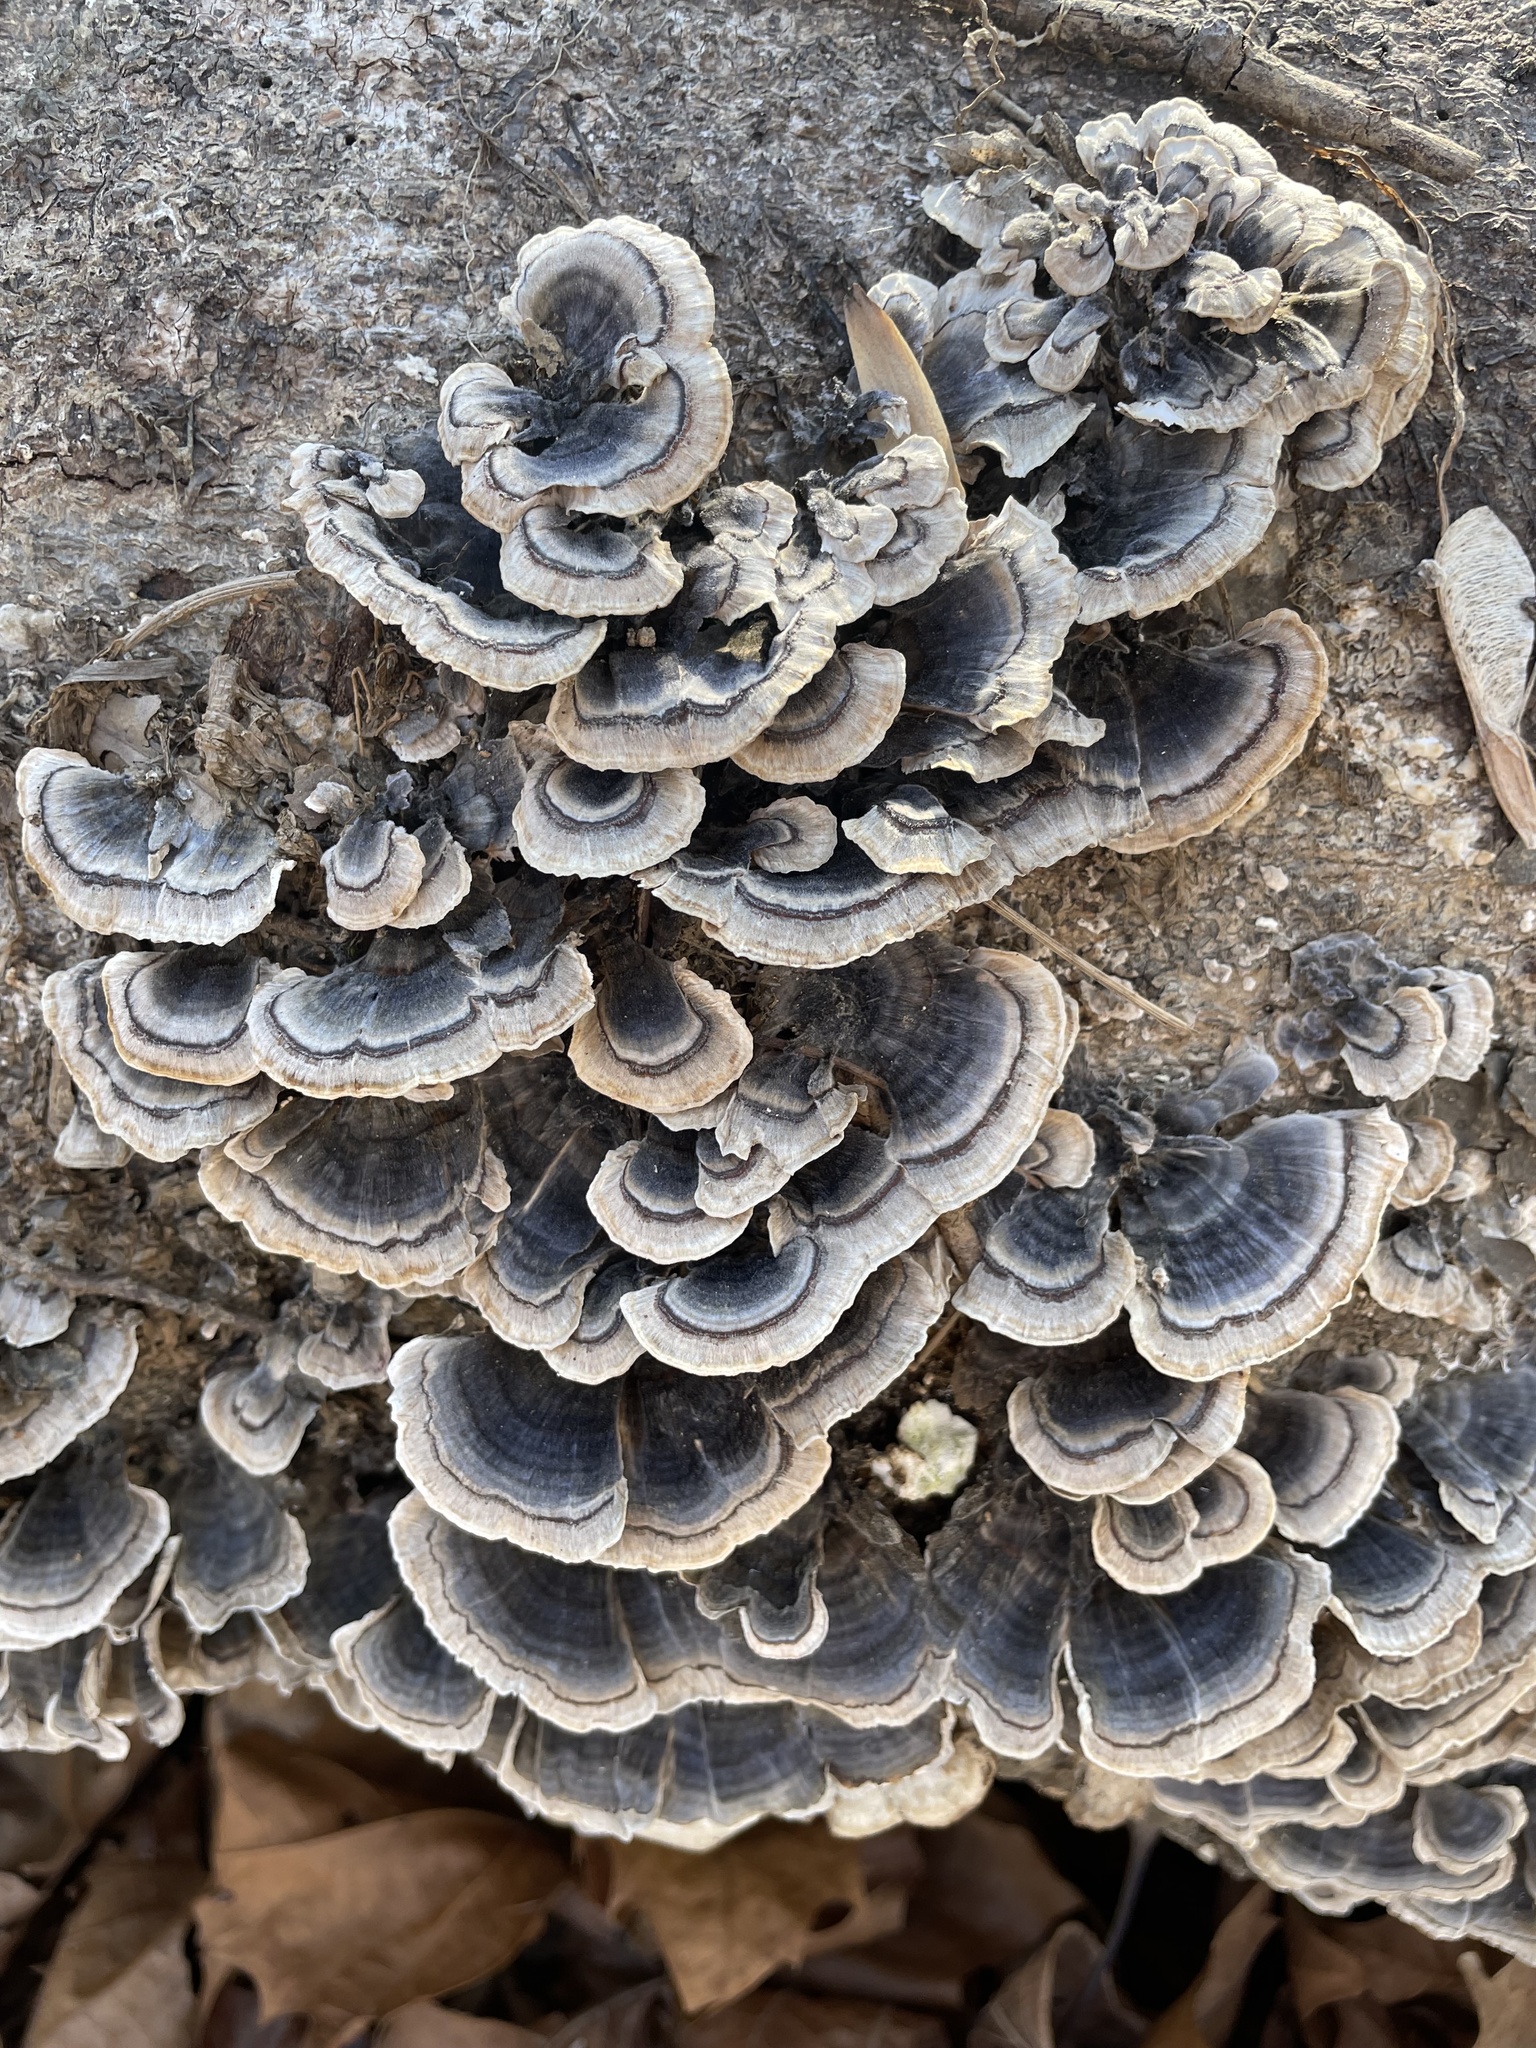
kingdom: Fungi
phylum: Basidiomycota
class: Agaricomycetes
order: Polyporales
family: Polyporaceae
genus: Trametes
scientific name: Trametes versicolor
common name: Turkeytail
